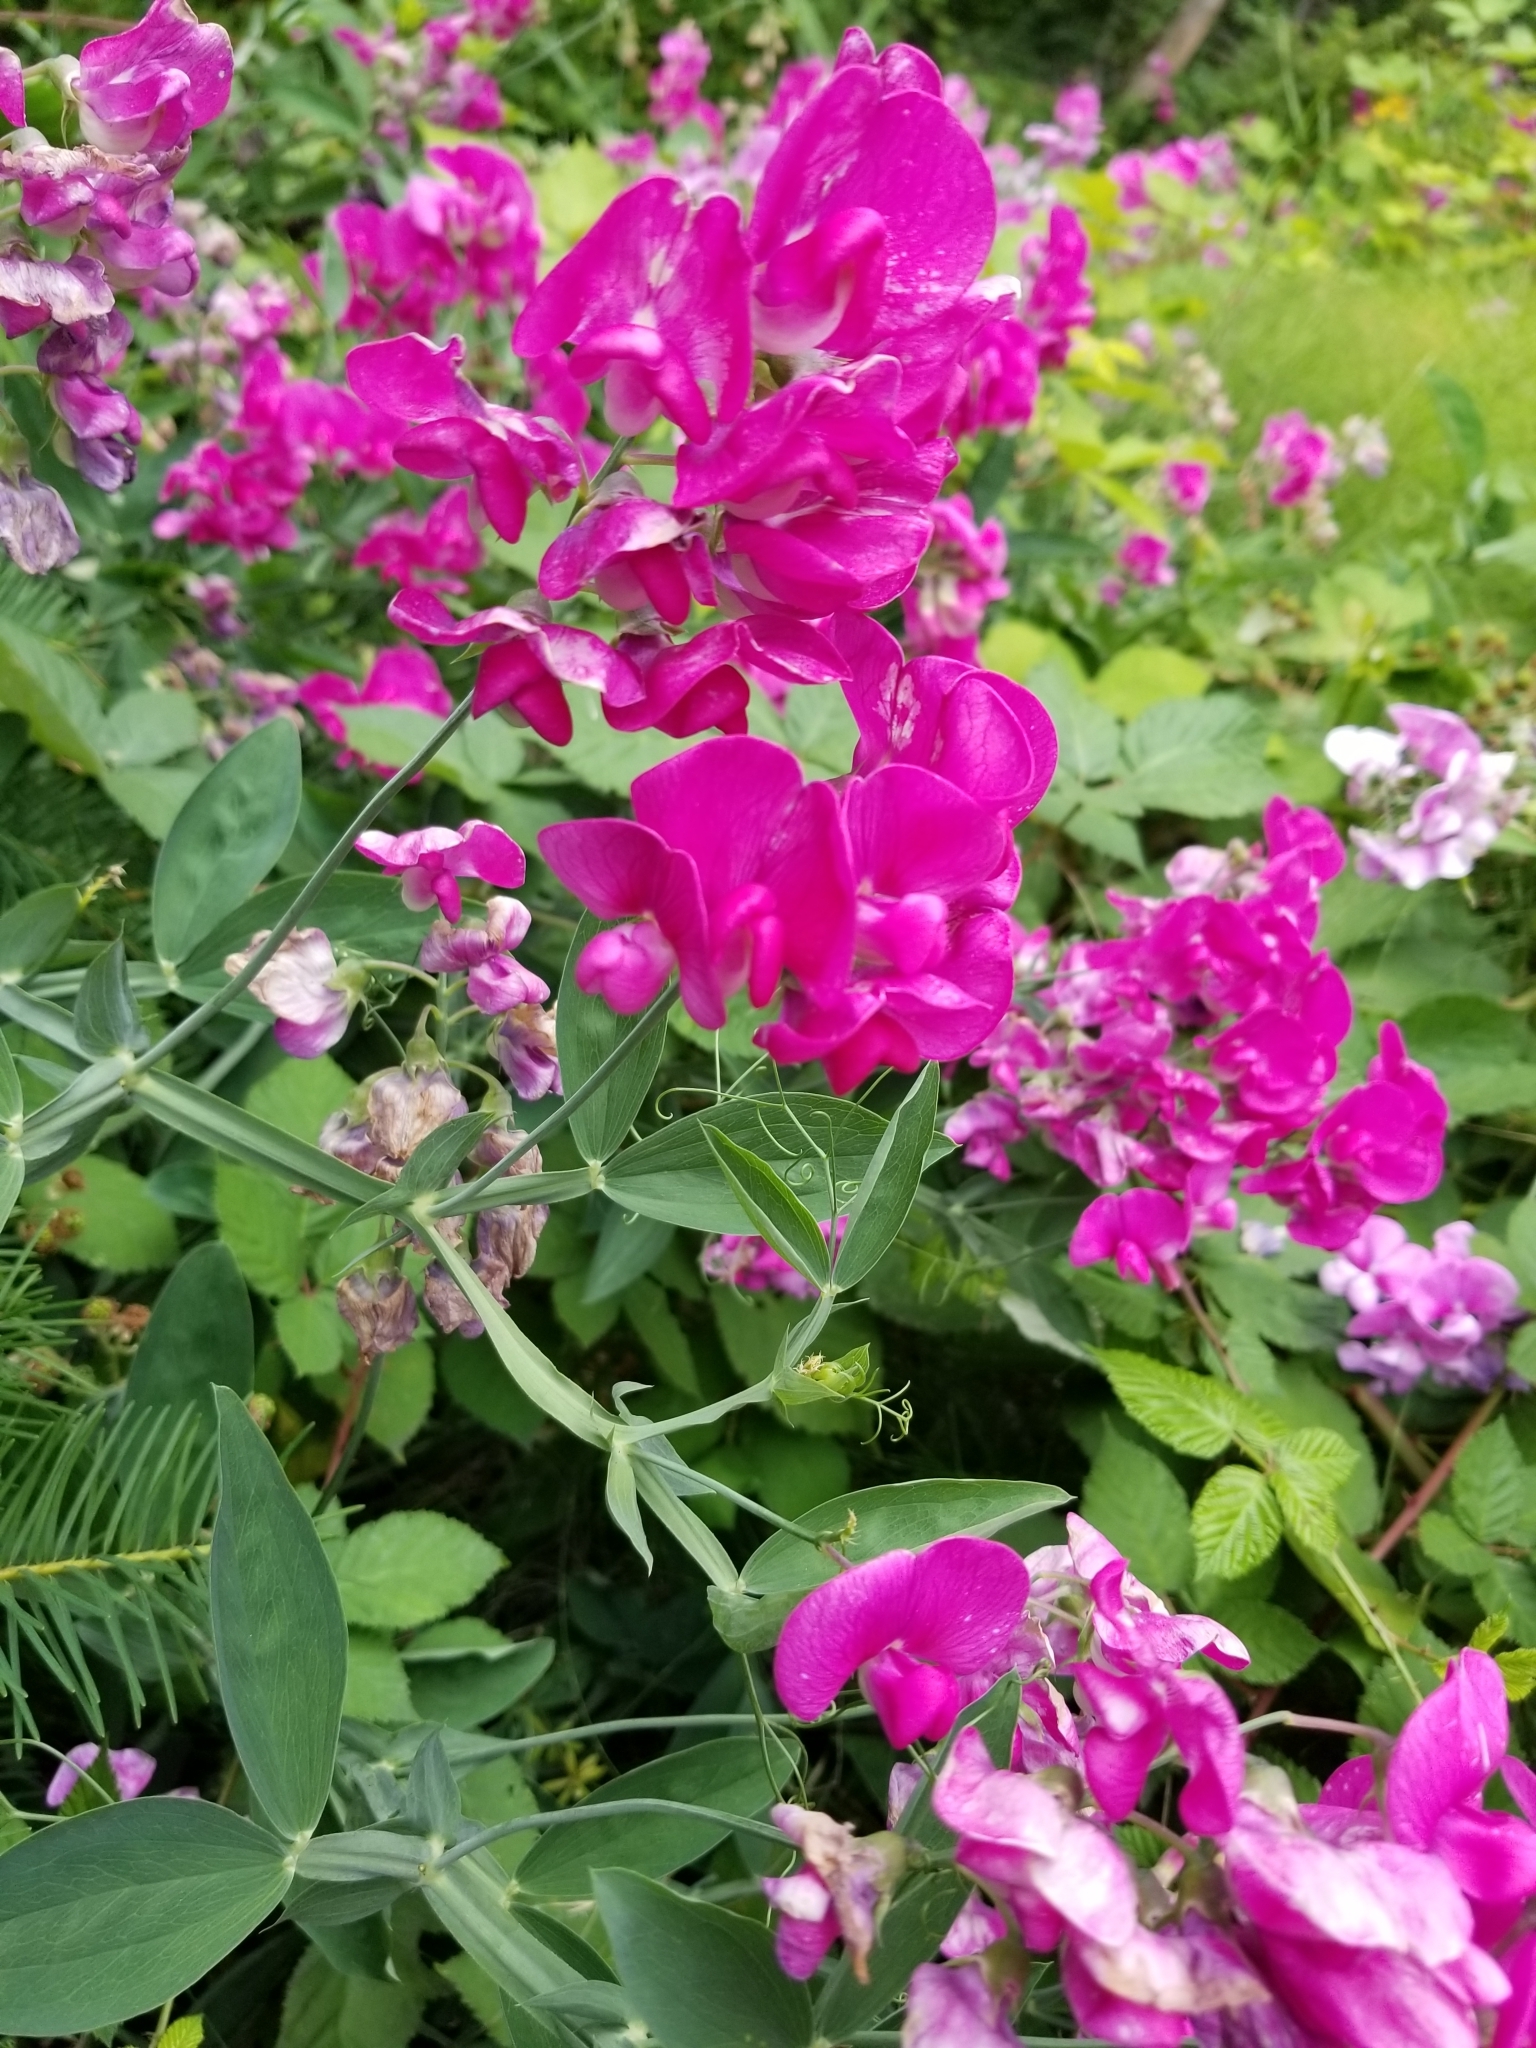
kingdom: Plantae
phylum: Tracheophyta
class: Magnoliopsida
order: Fabales
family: Fabaceae
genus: Lathyrus
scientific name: Lathyrus latifolius
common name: Perennial pea
